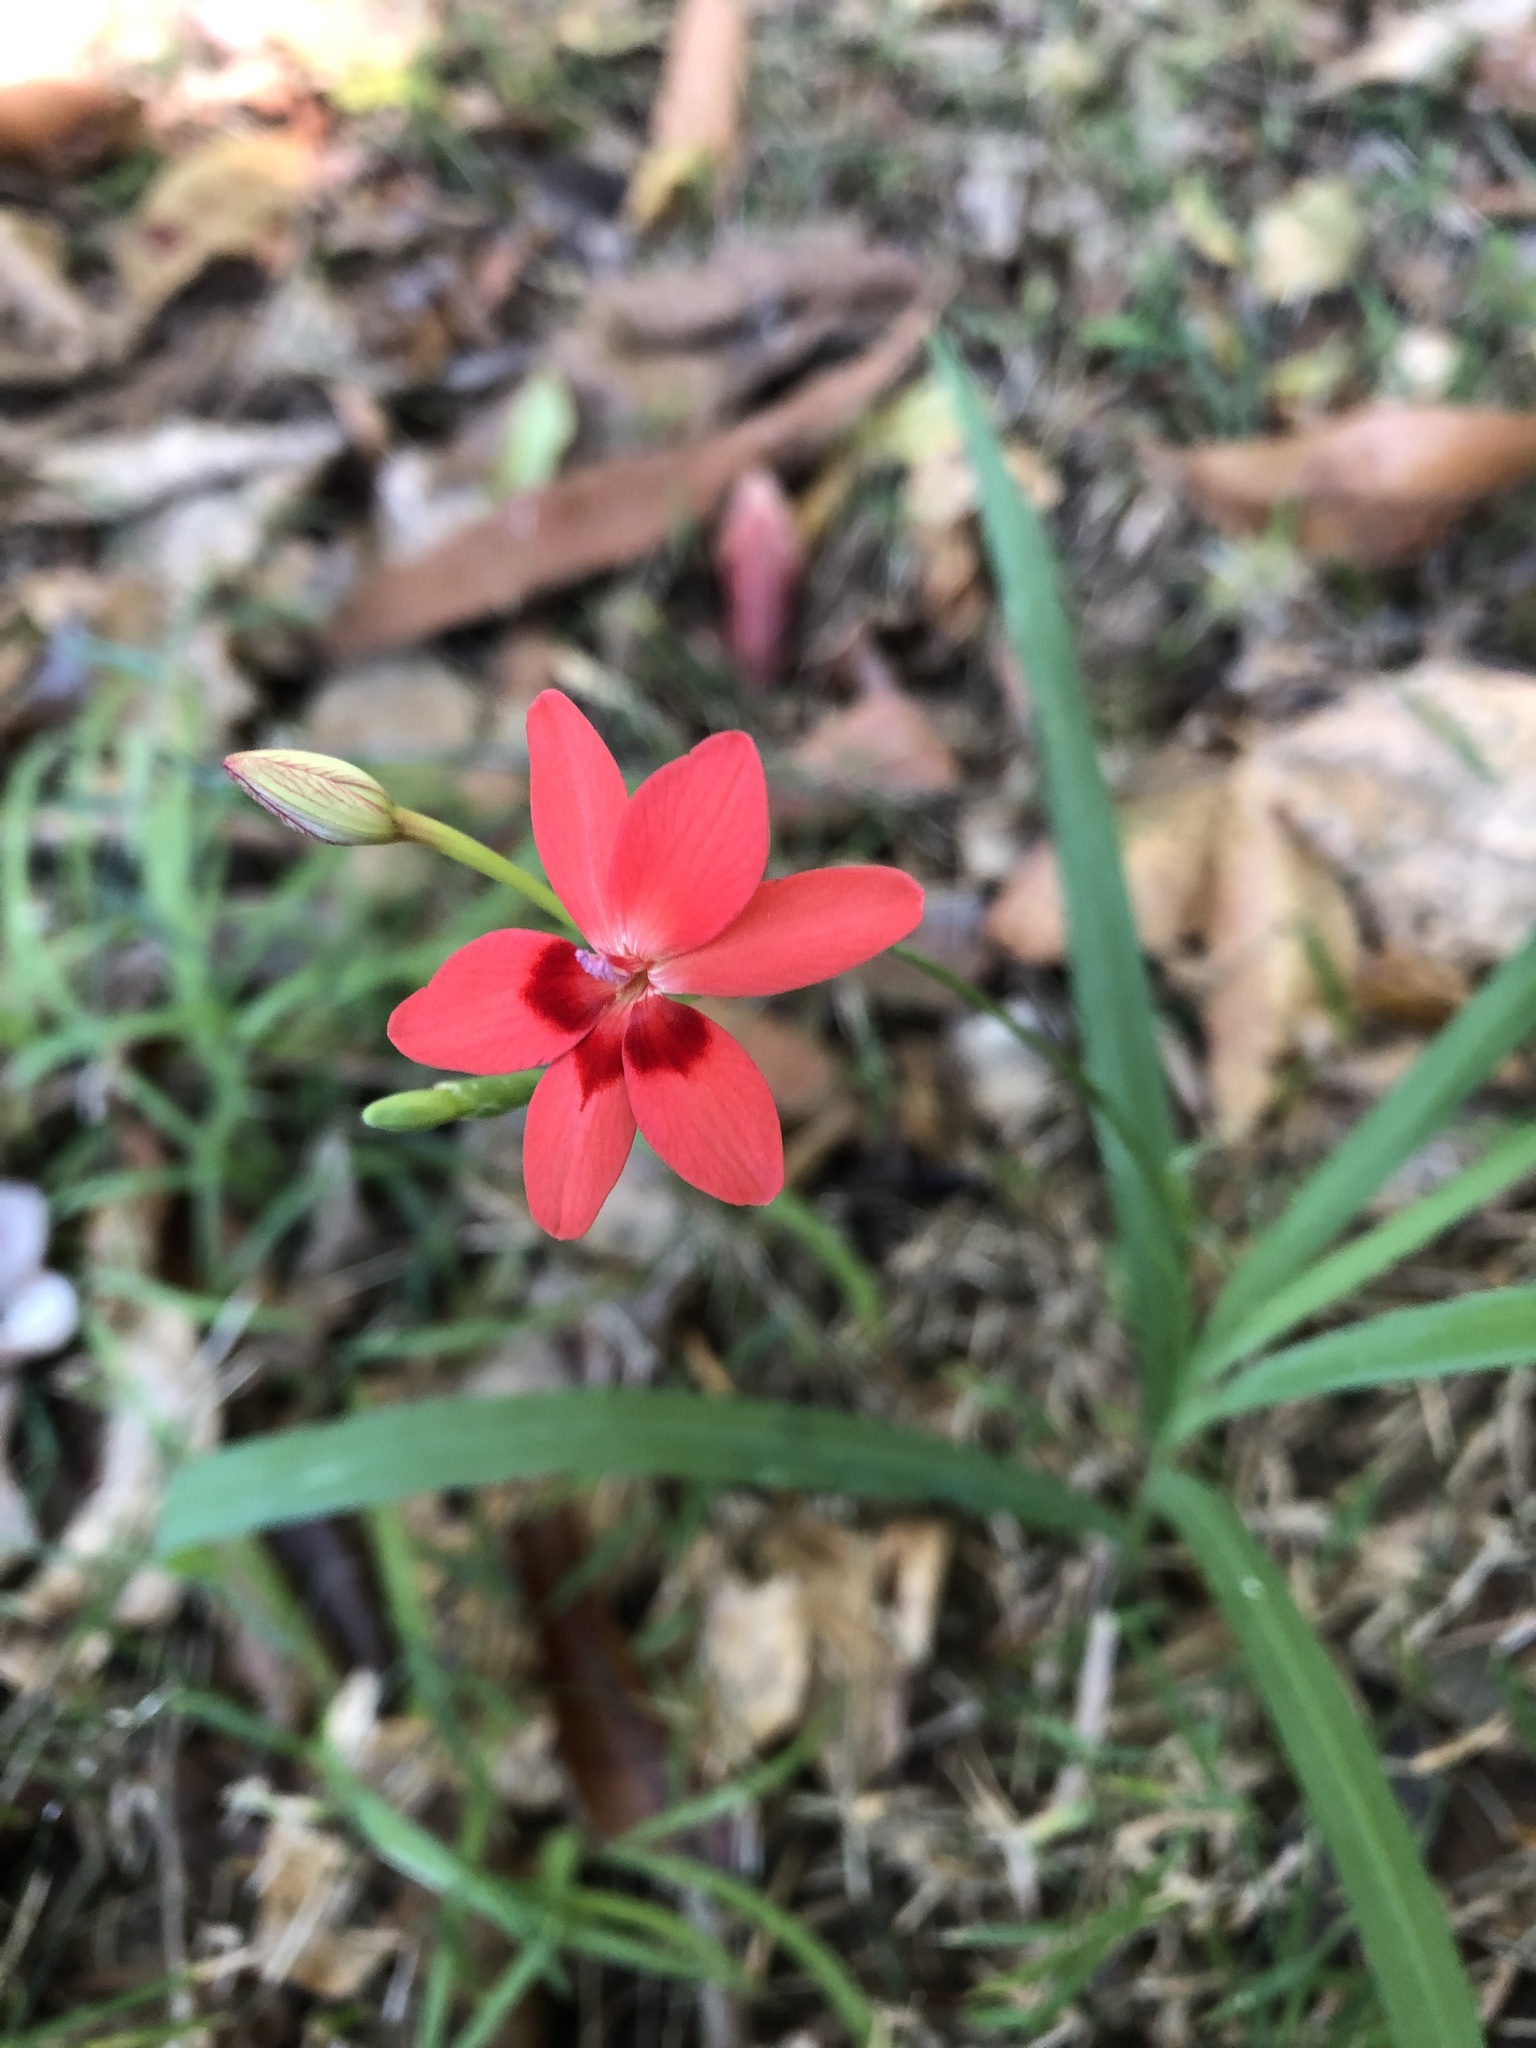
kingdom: Plantae
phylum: Tracheophyta
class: Liliopsida
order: Asparagales
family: Iridaceae
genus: Freesia
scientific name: Freesia laxa
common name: False freesia
